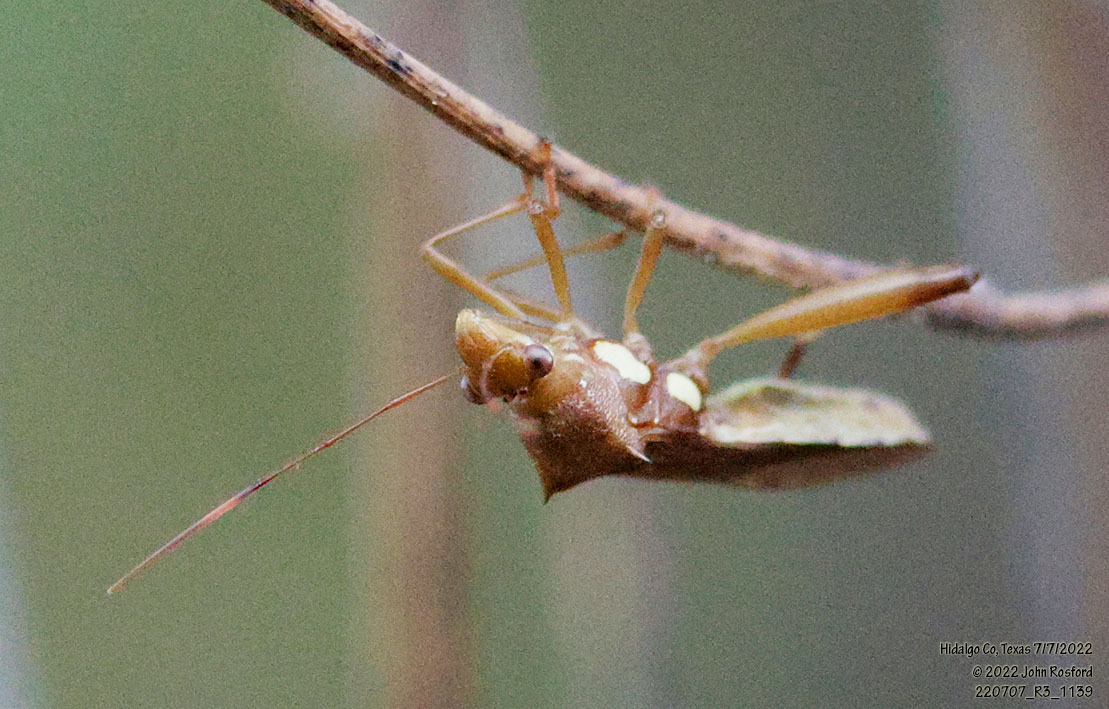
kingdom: Animalia
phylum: Arthropoda
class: Insecta
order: Hemiptera
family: Alydidae
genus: Hyalymenus
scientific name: Hyalymenus tarsatus
